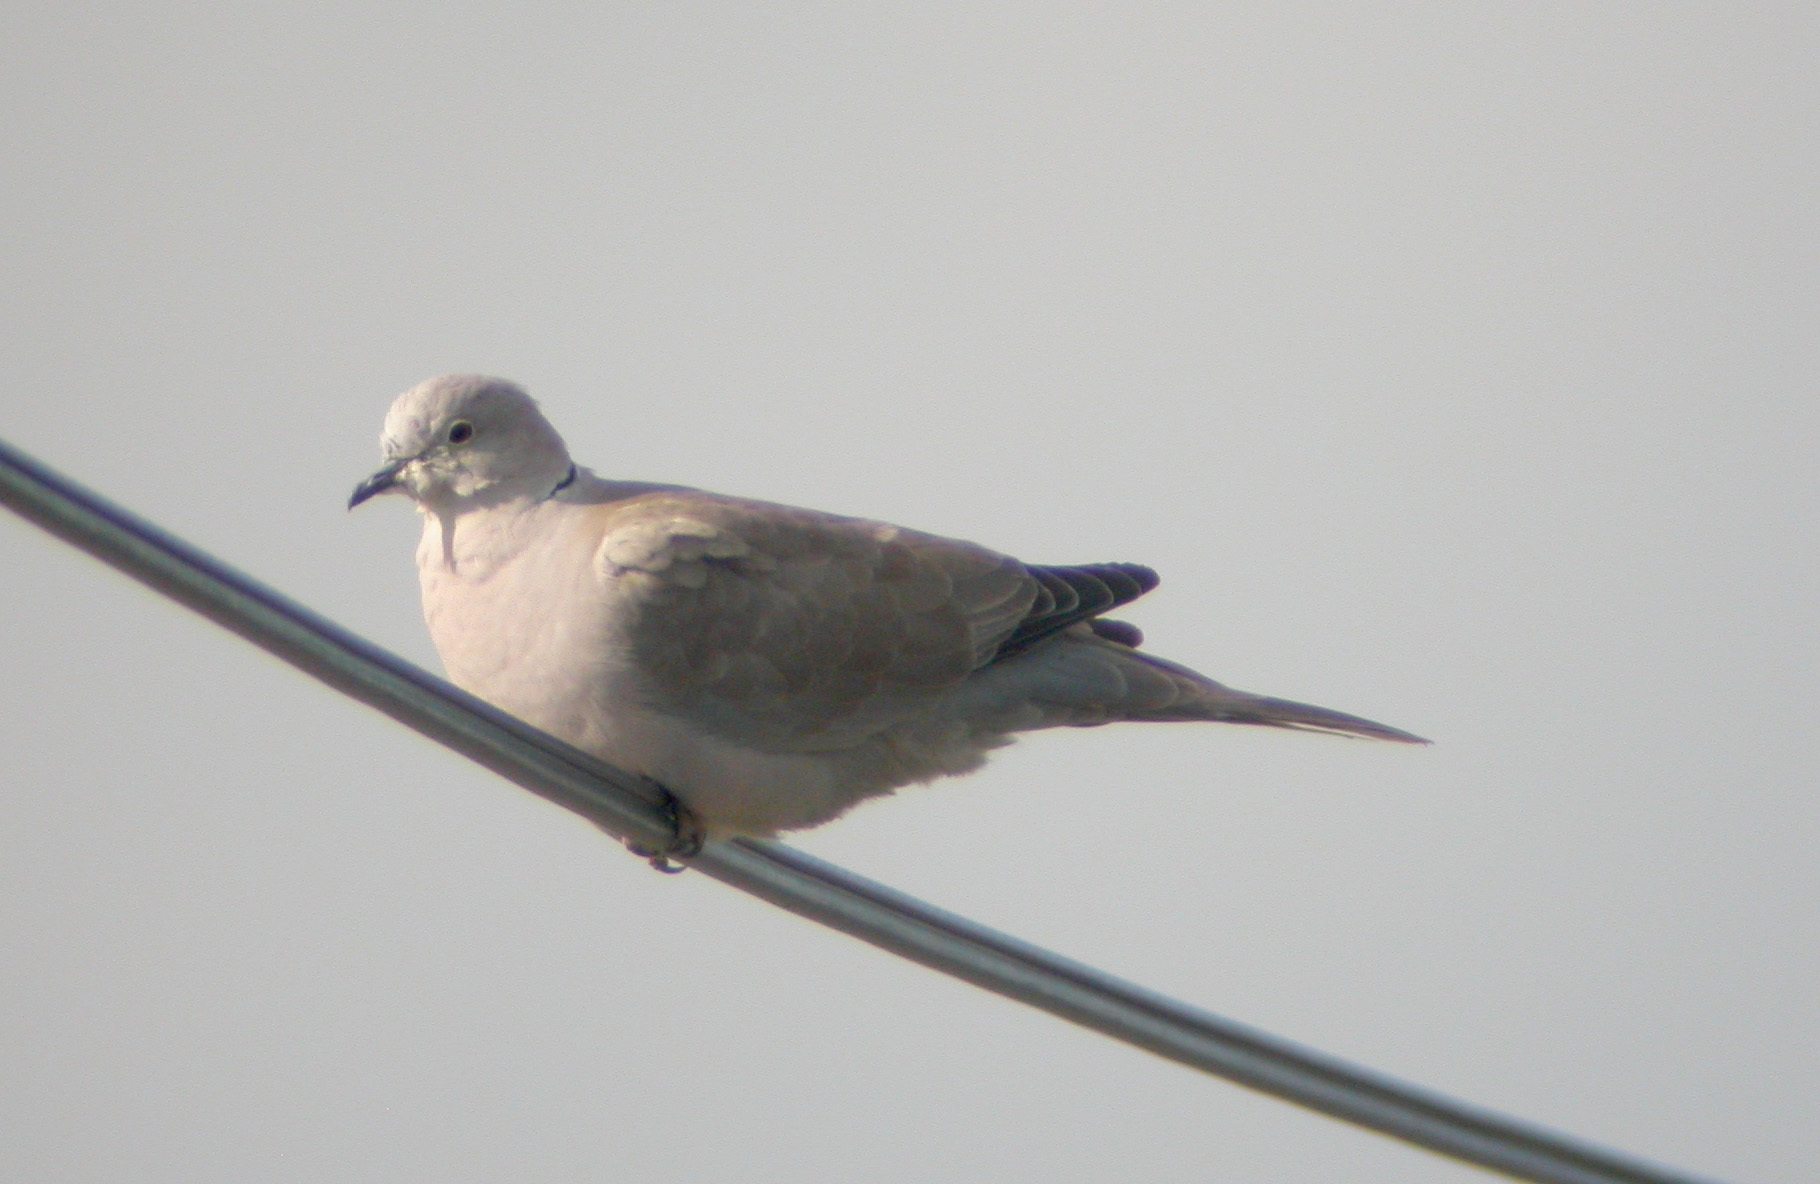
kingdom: Animalia
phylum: Chordata
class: Aves
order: Columbiformes
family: Columbidae
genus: Streptopelia
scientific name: Streptopelia decaocto
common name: Eurasian collared dove
